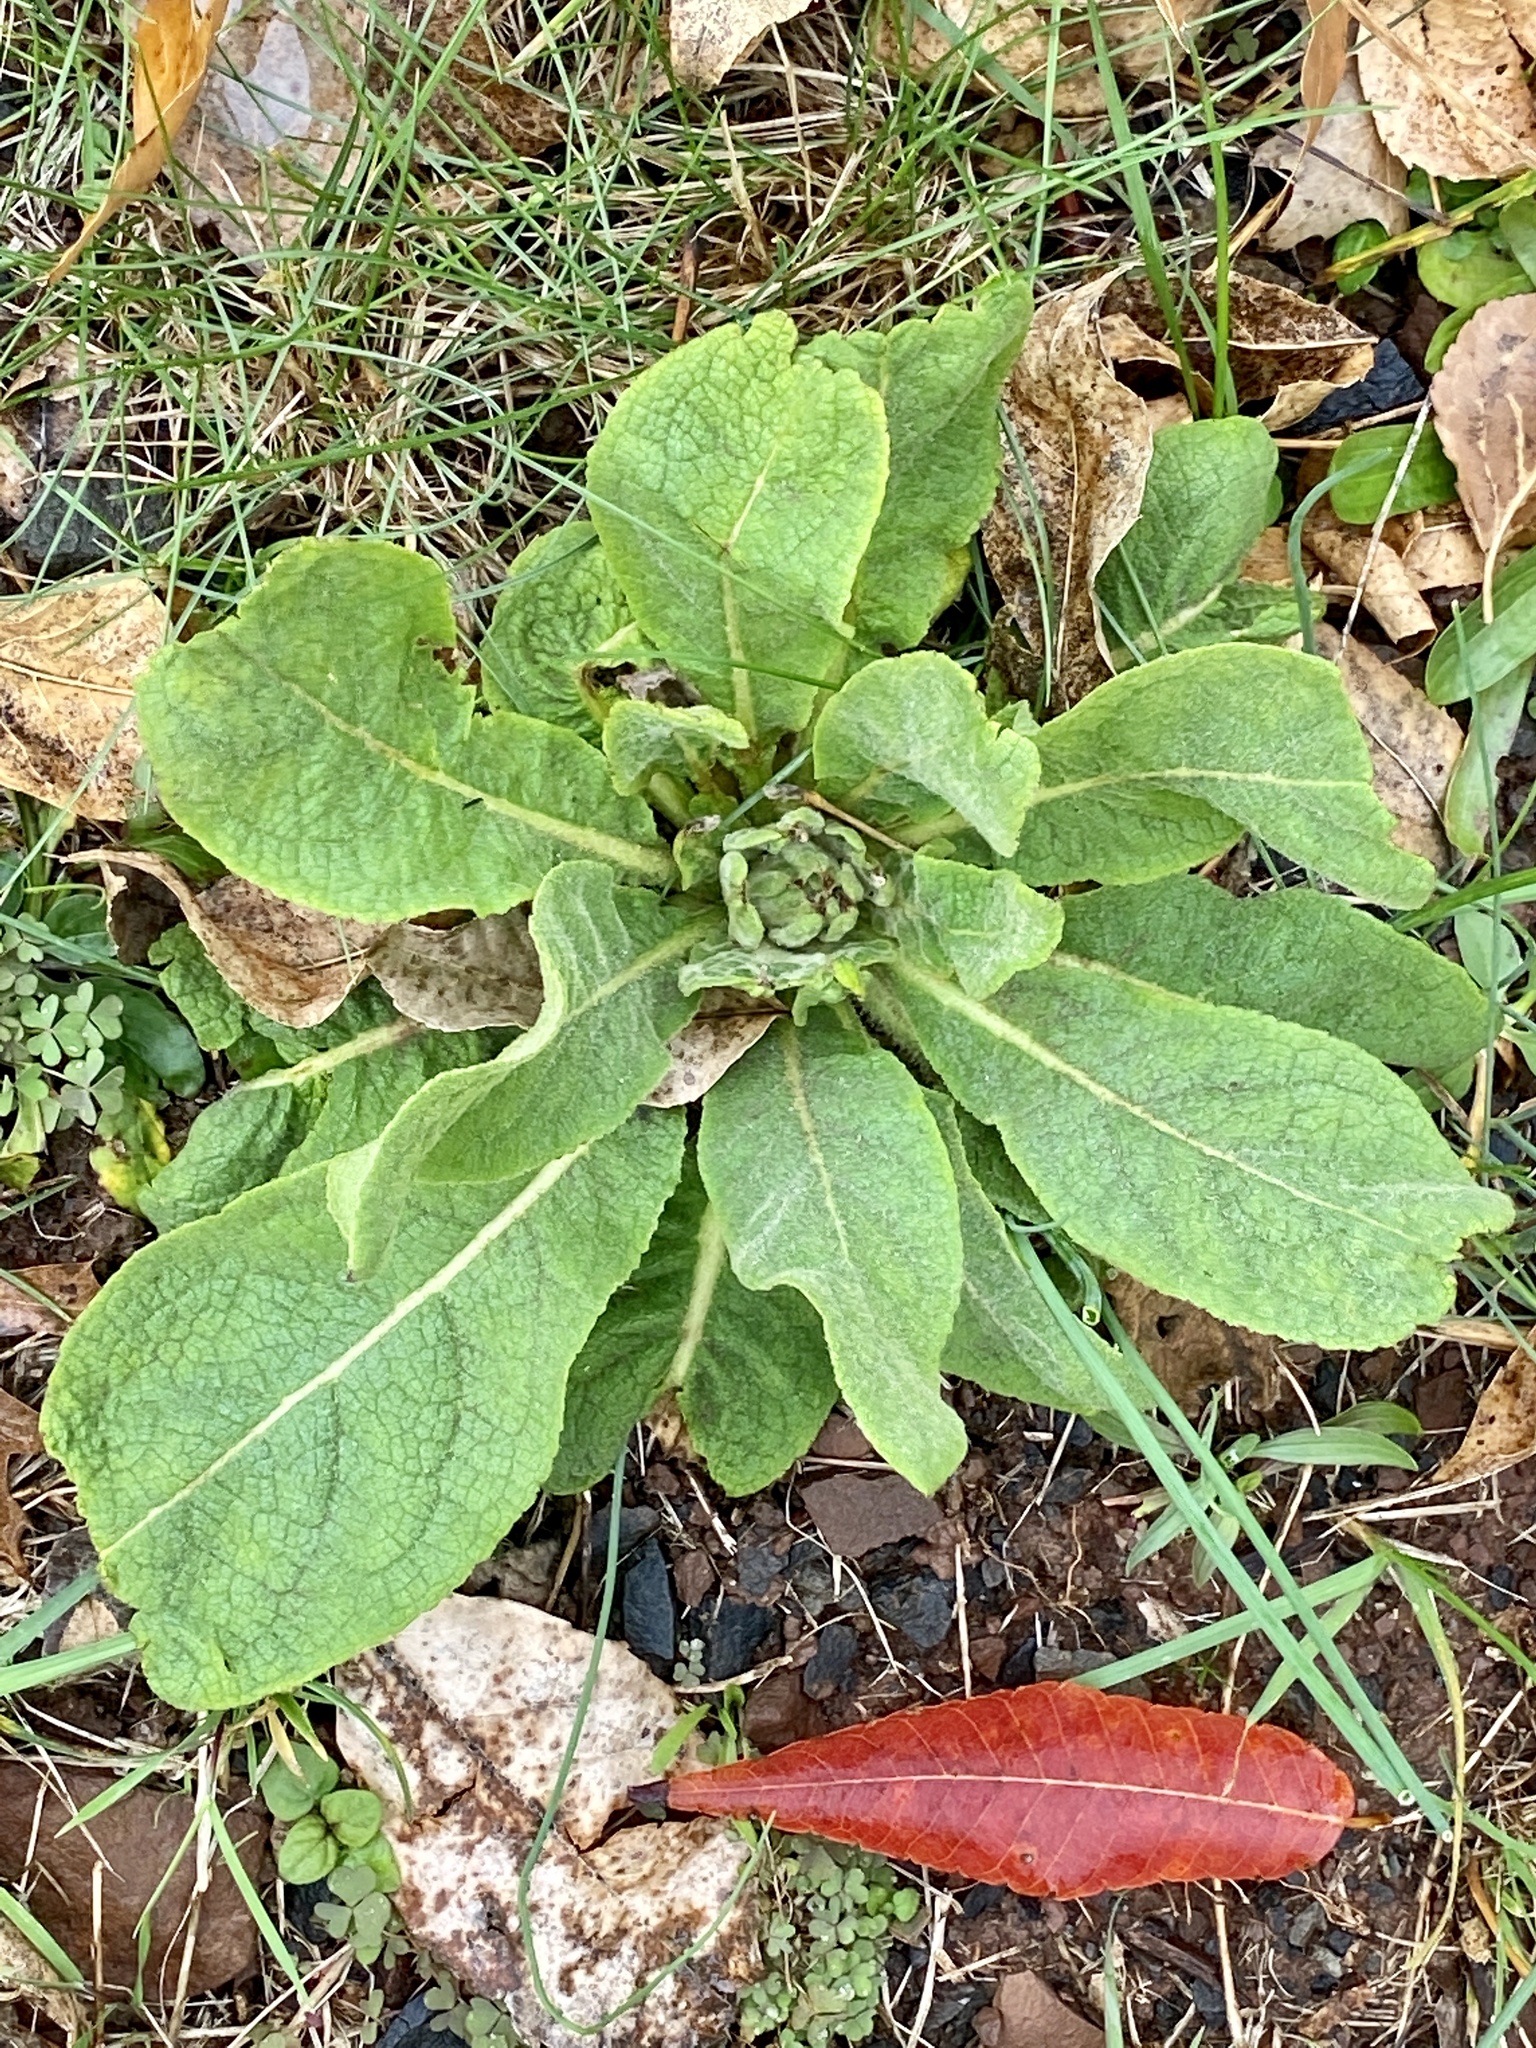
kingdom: Plantae
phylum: Tracheophyta
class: Magnoliopsida
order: Lamiales
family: Scrophulariaceae
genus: Verbascum
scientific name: Verbascum thapsus
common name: Common mullein
